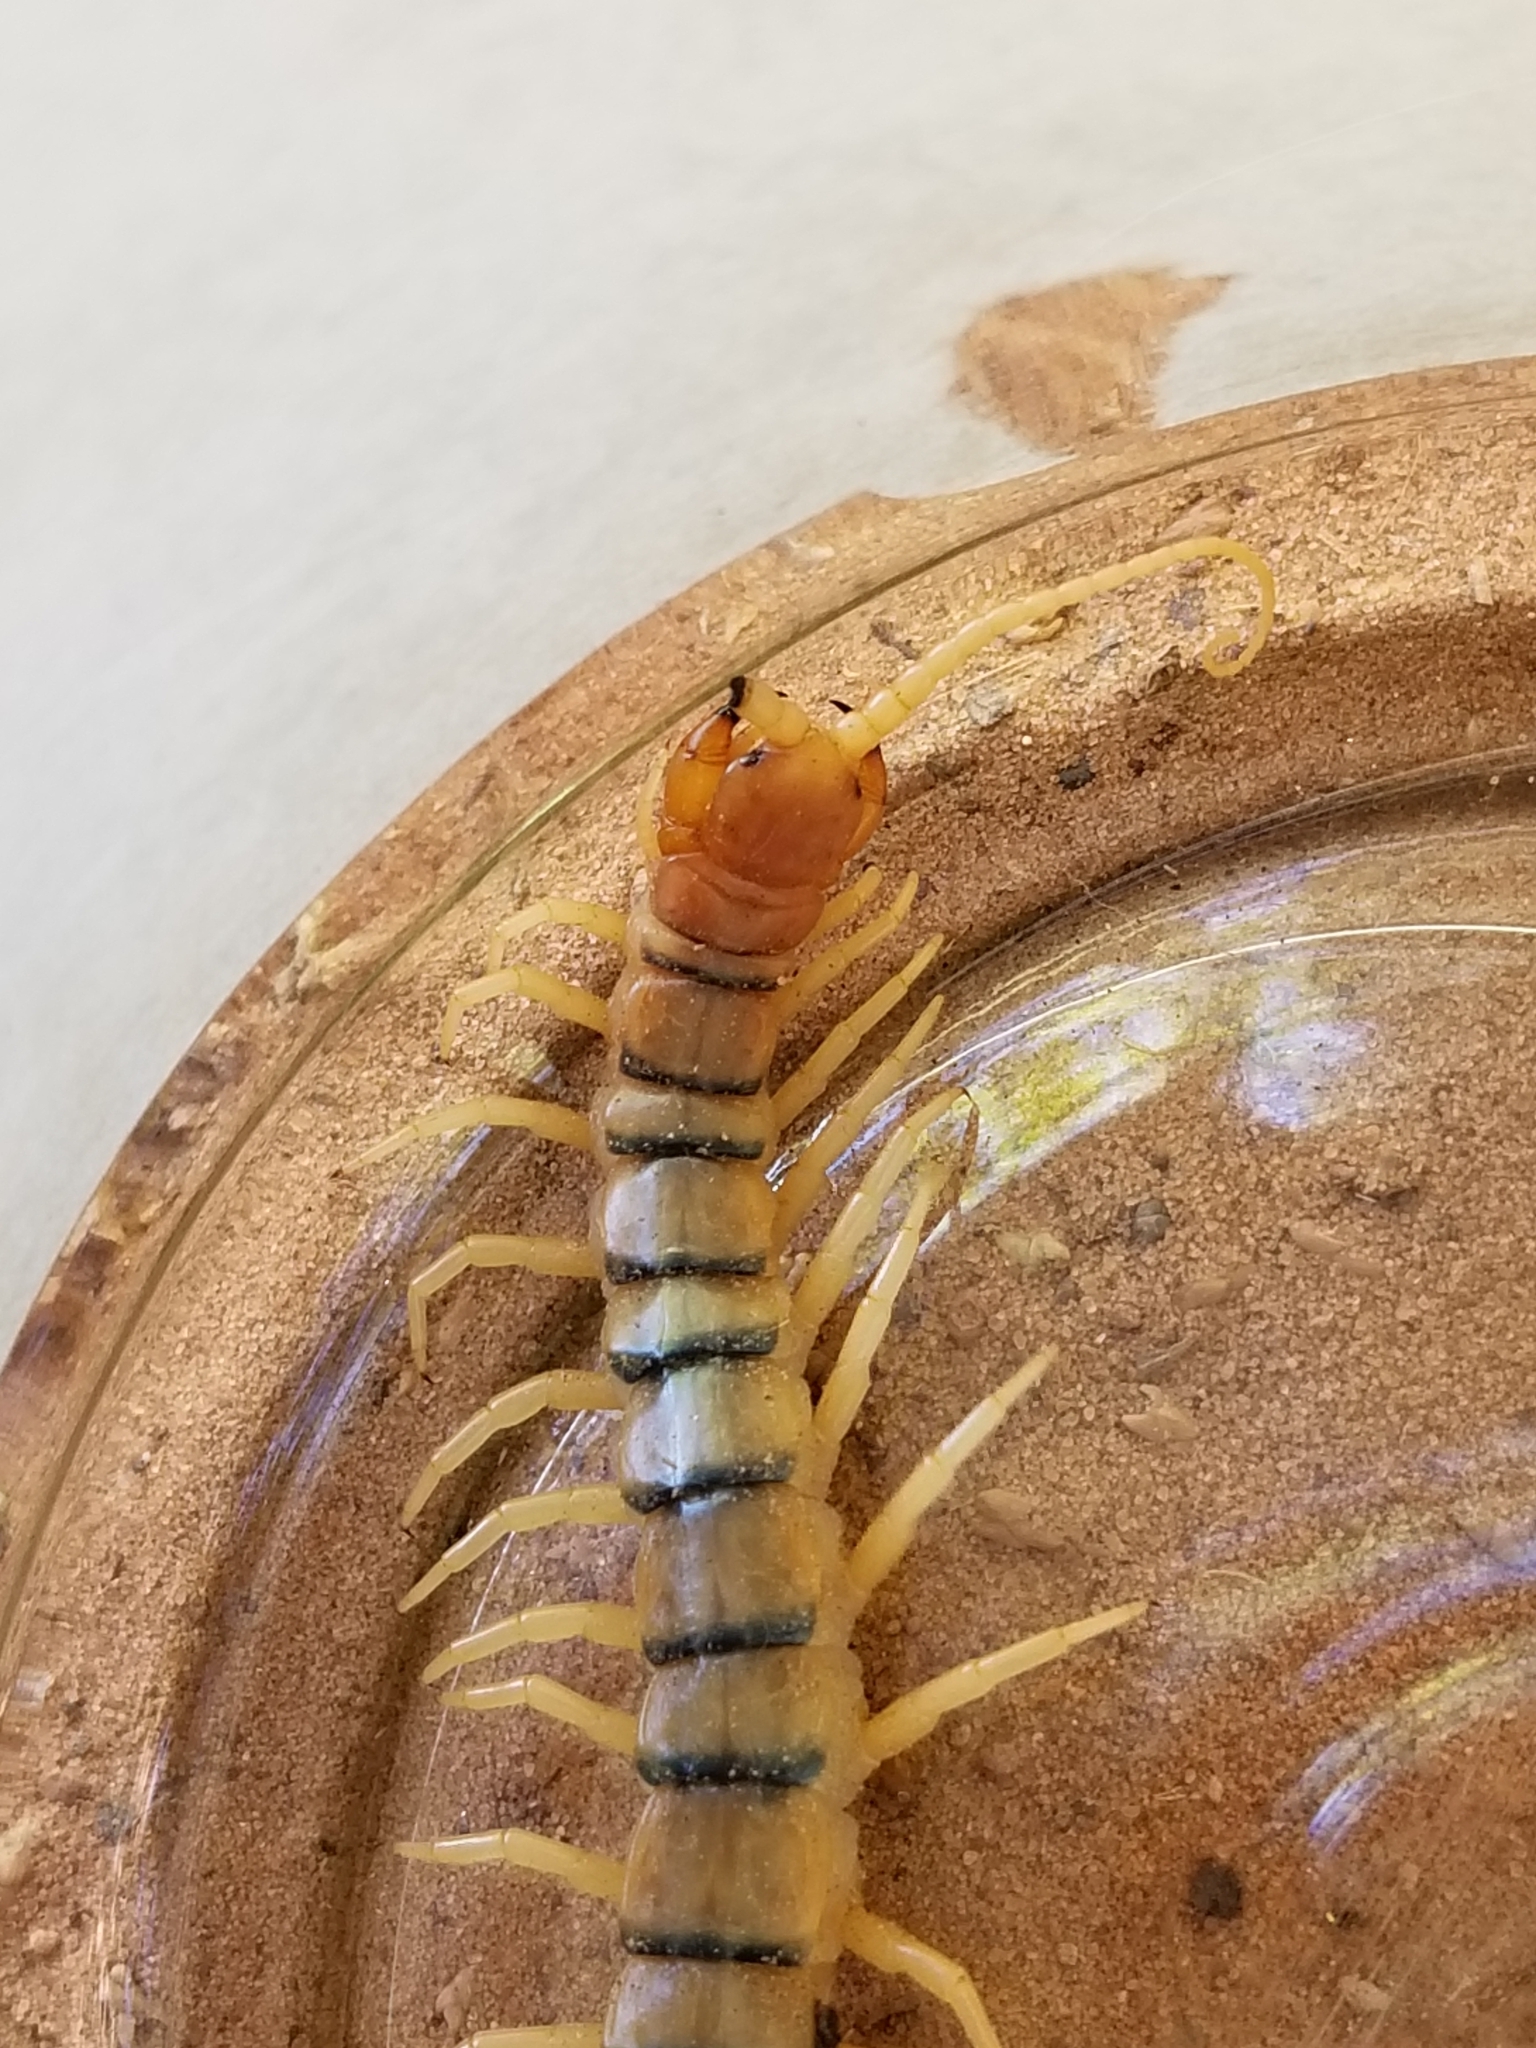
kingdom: Animalia
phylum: Arthropoda
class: Chilopoda
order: Scolopendromorpha
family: Scolopendridae
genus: Scolopendra
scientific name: Scolopendra polymorpha
